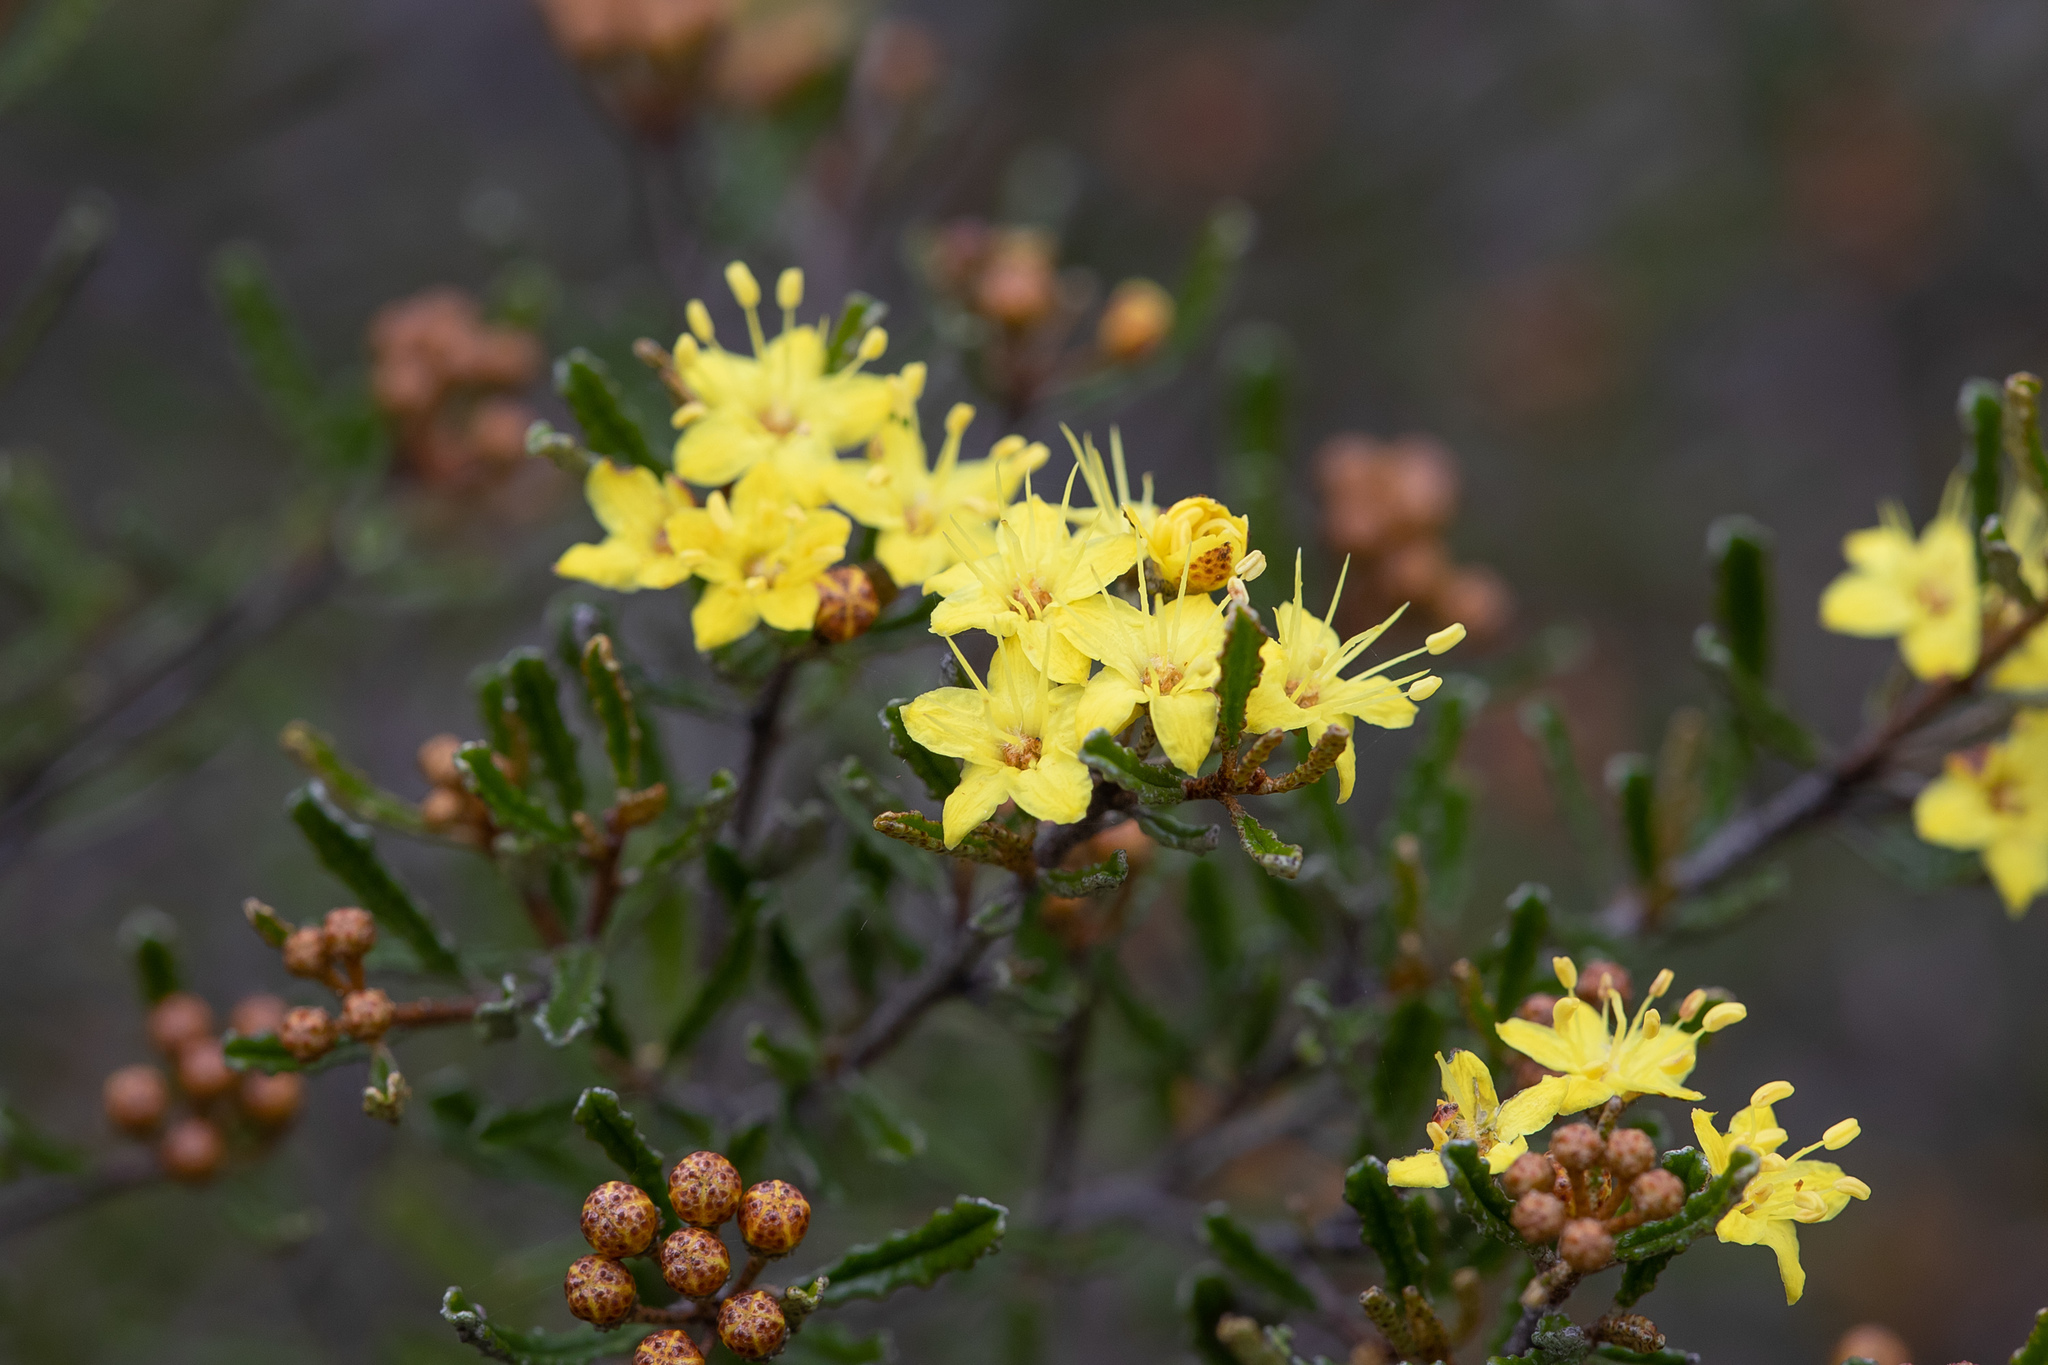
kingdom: Plantae
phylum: Tracheophyta
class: Magnoliopsida
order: Sapindales
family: Rutaceae
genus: Phebalium
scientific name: Phebalium bullatum
